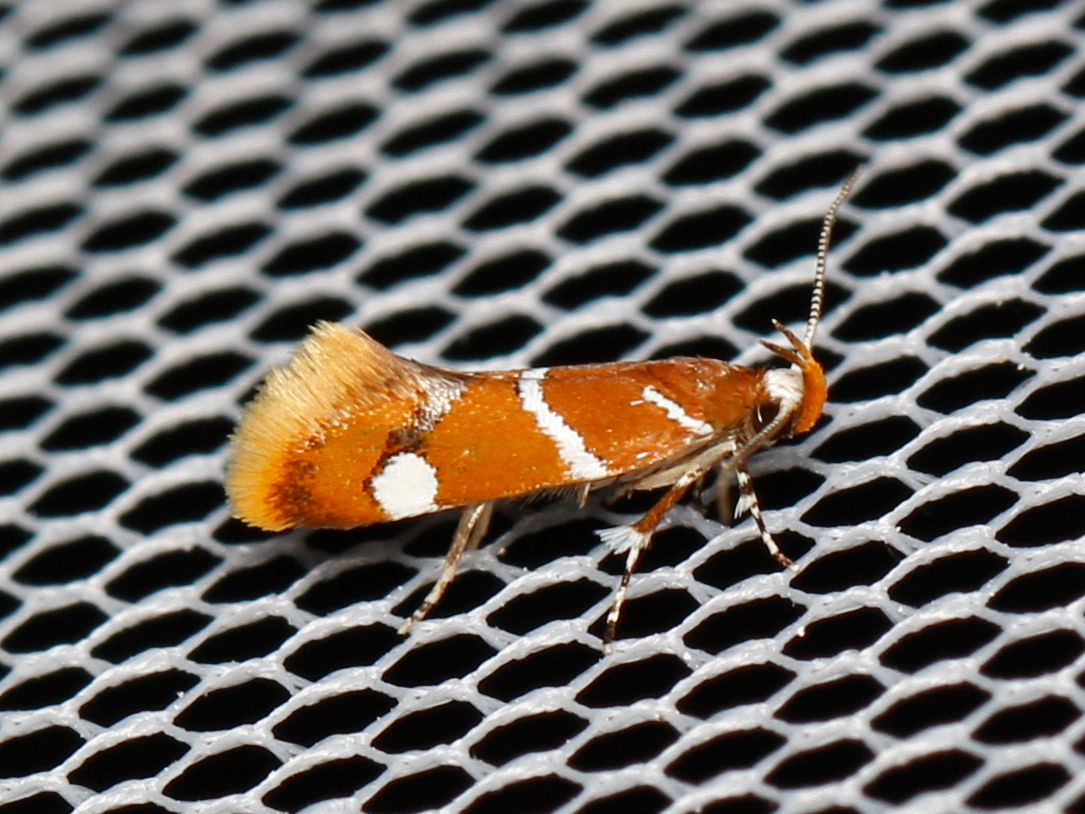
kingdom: Animalia
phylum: Arthropoda
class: Insecta
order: Lepidoptera
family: Oecophoridae
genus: Promalactis
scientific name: Promalactis suzukiella
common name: Moth
